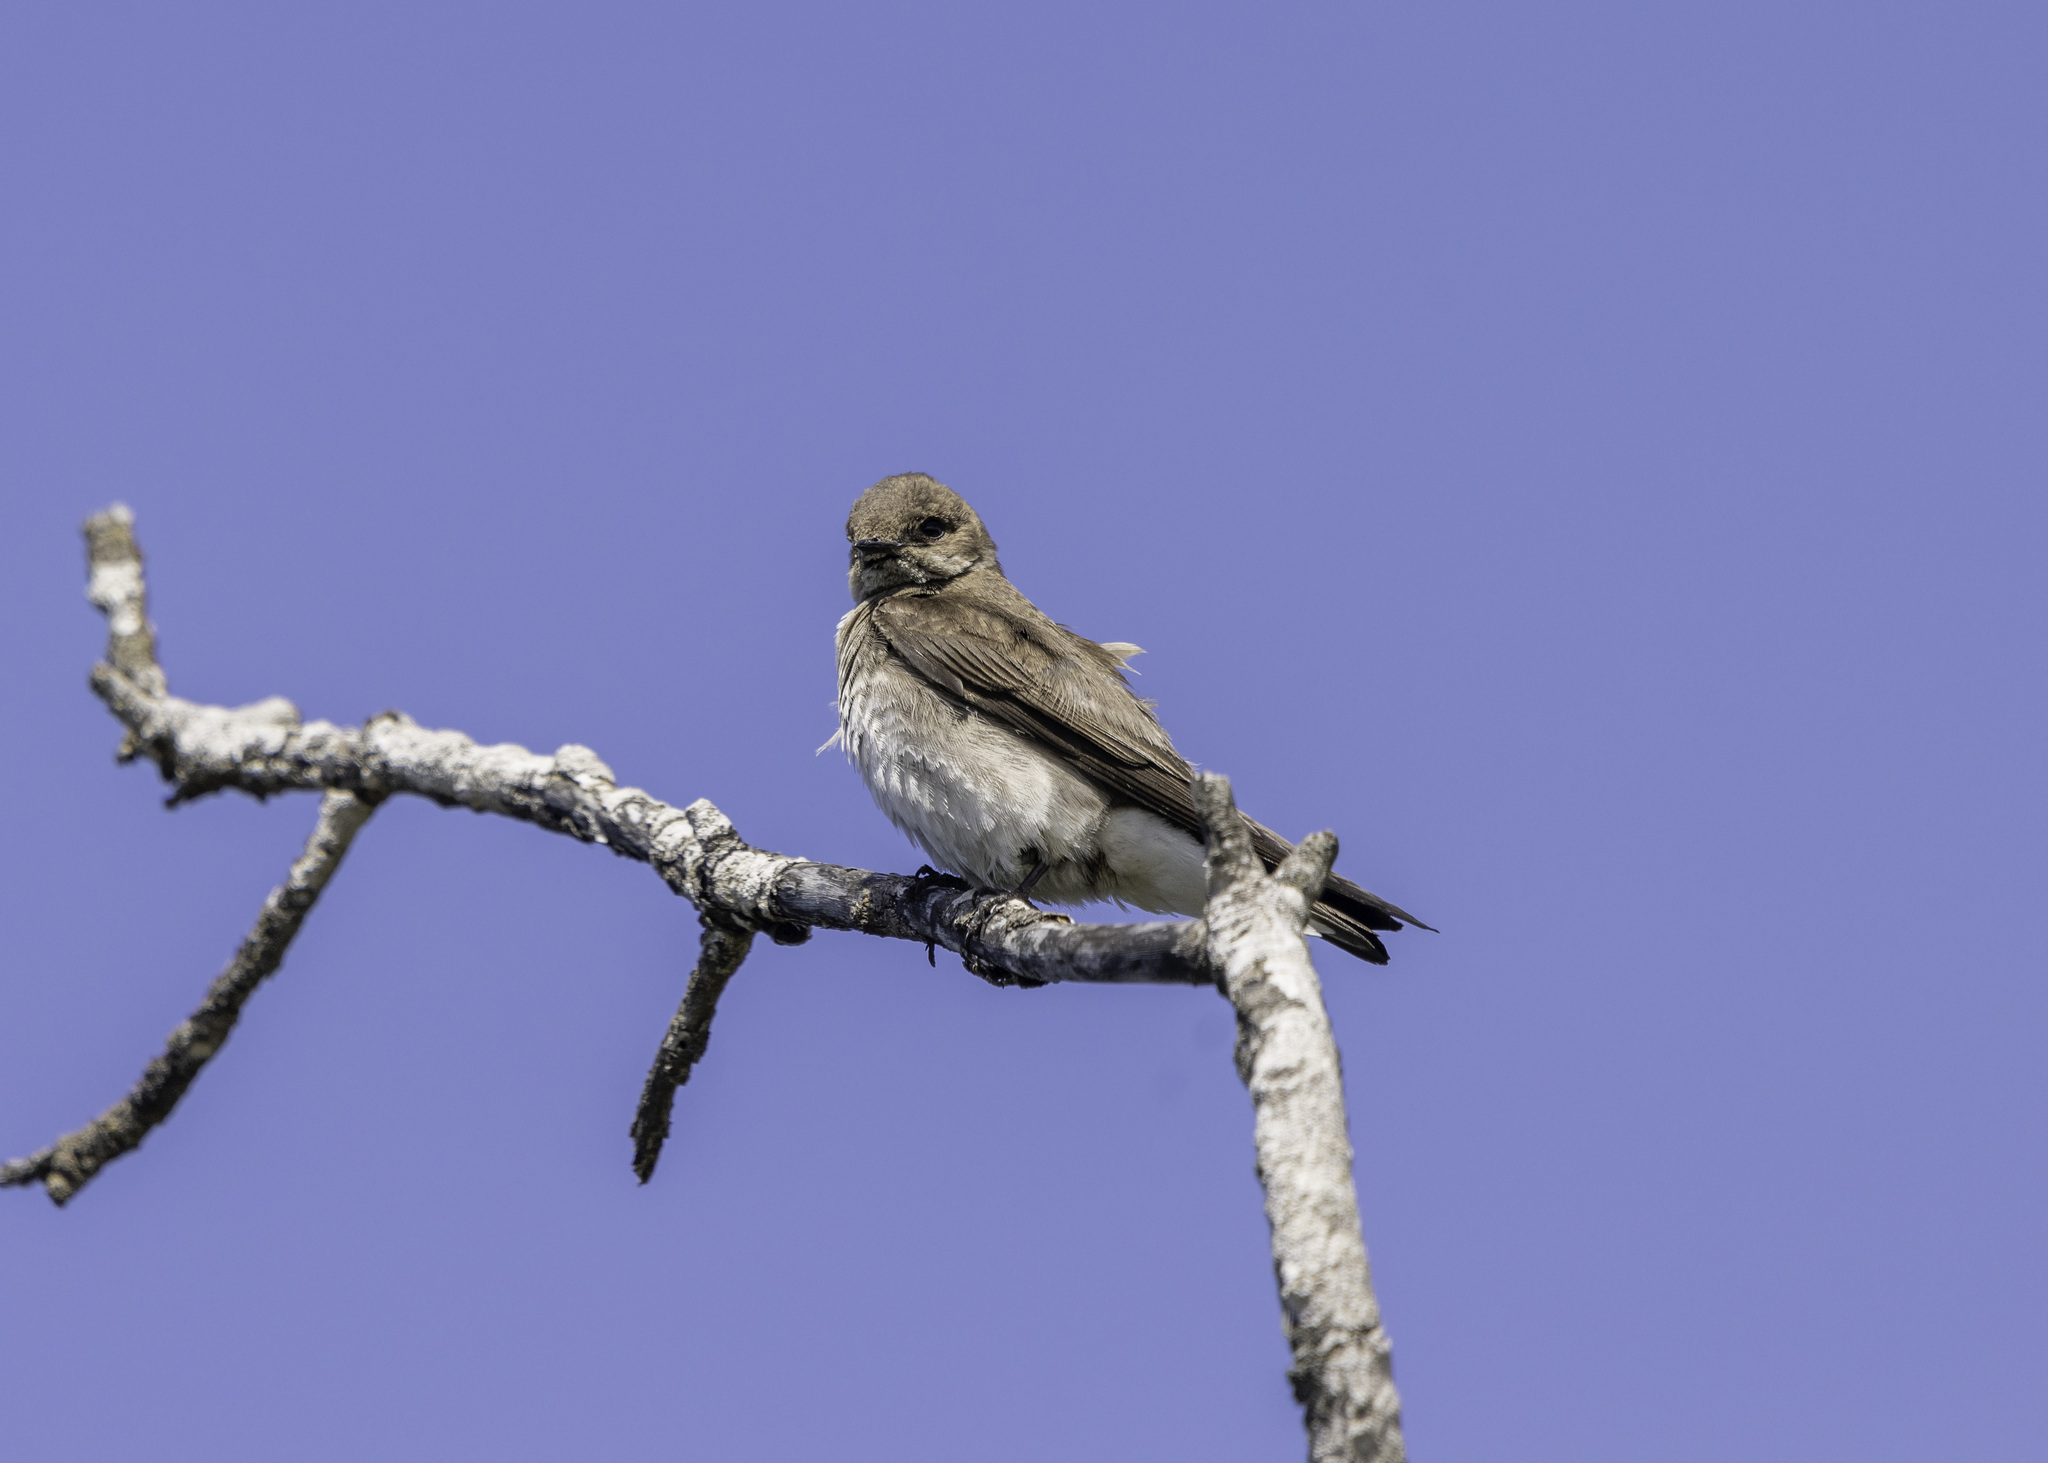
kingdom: Animalia
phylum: Chordata
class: Aves
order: Passeriformes
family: Hirundinidae
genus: Stelgidopteryx
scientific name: Stelgidopteryx serripennis
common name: Northern rough-winged swallow
